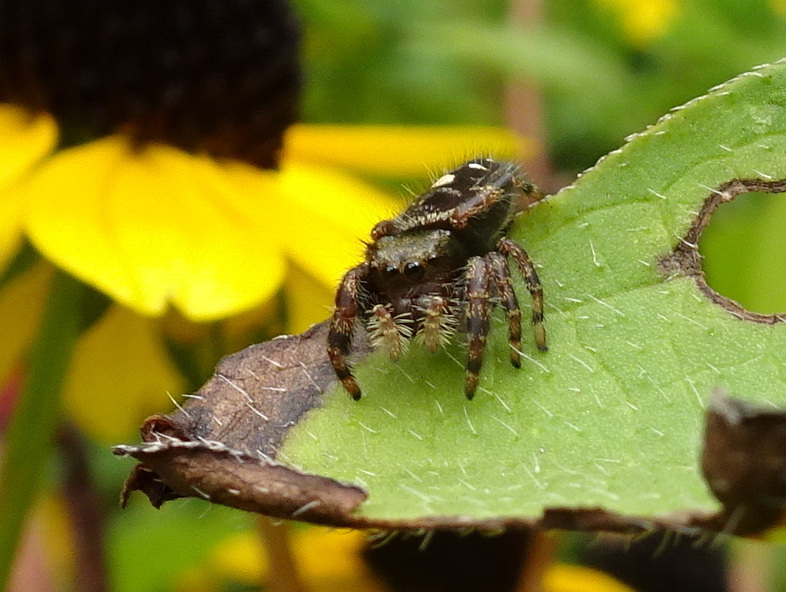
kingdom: Animalia
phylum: Arthropoda
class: Arachnida
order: Araneae
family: Salticidae
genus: Phidippus
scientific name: Phidippus audax
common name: Bold jumper
